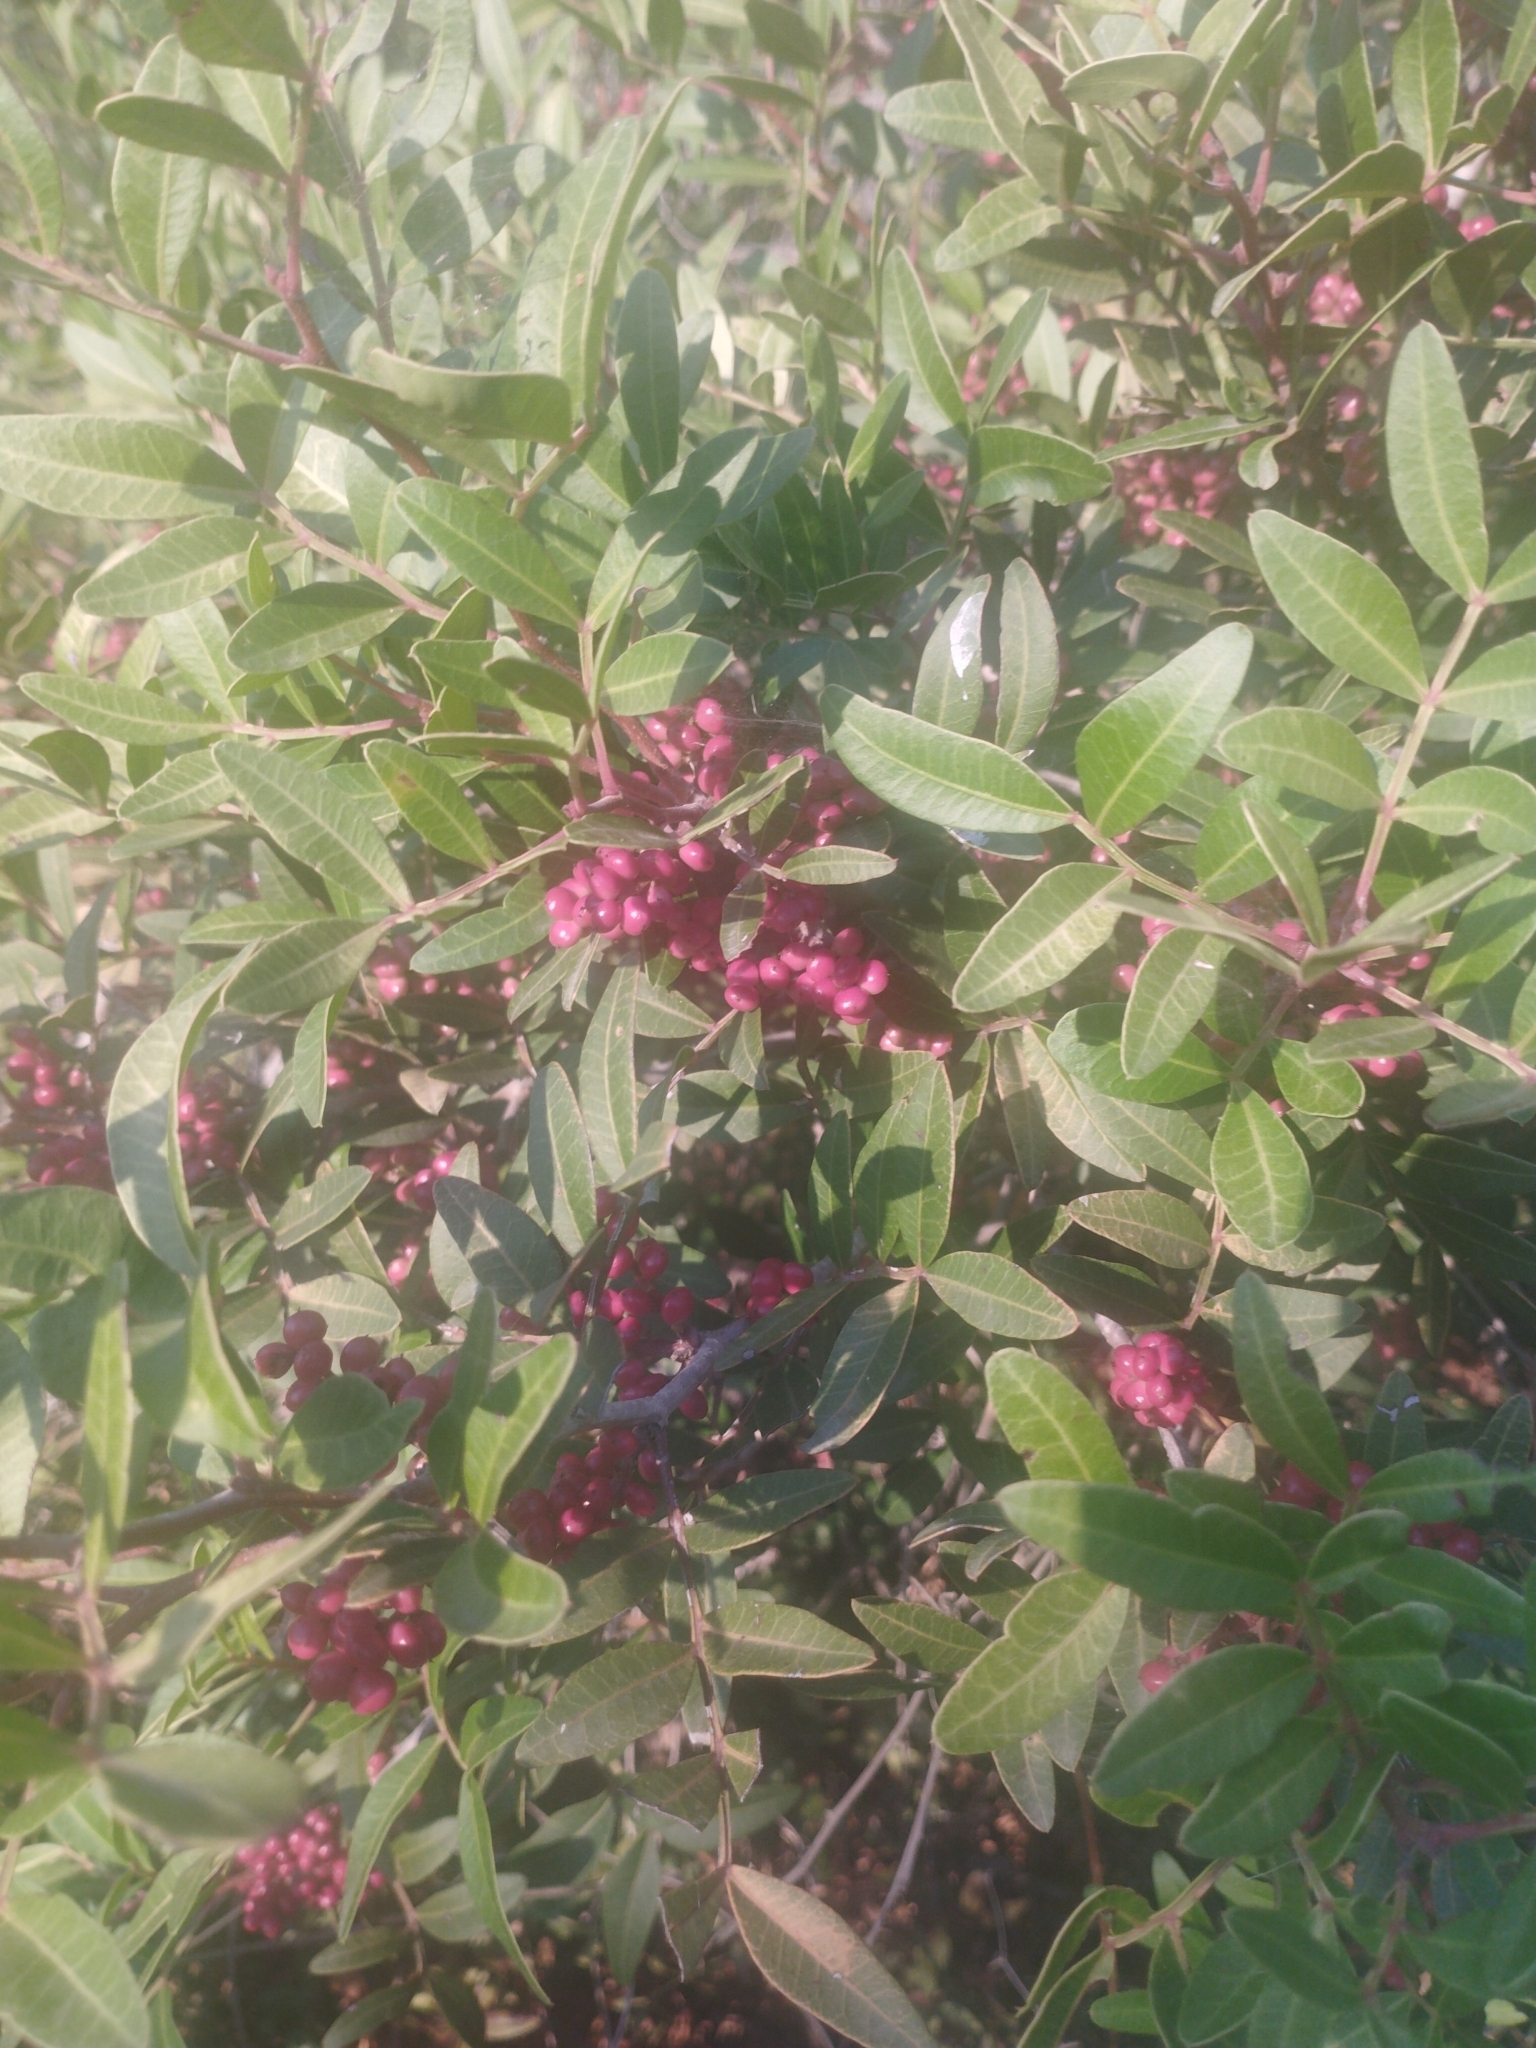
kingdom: Plantae
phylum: Tracheophyta
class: Magnoliopsida
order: Sapindales
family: Anacardiaceae
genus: Pistacia
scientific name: Pistacia lentiscus
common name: Lentisk
